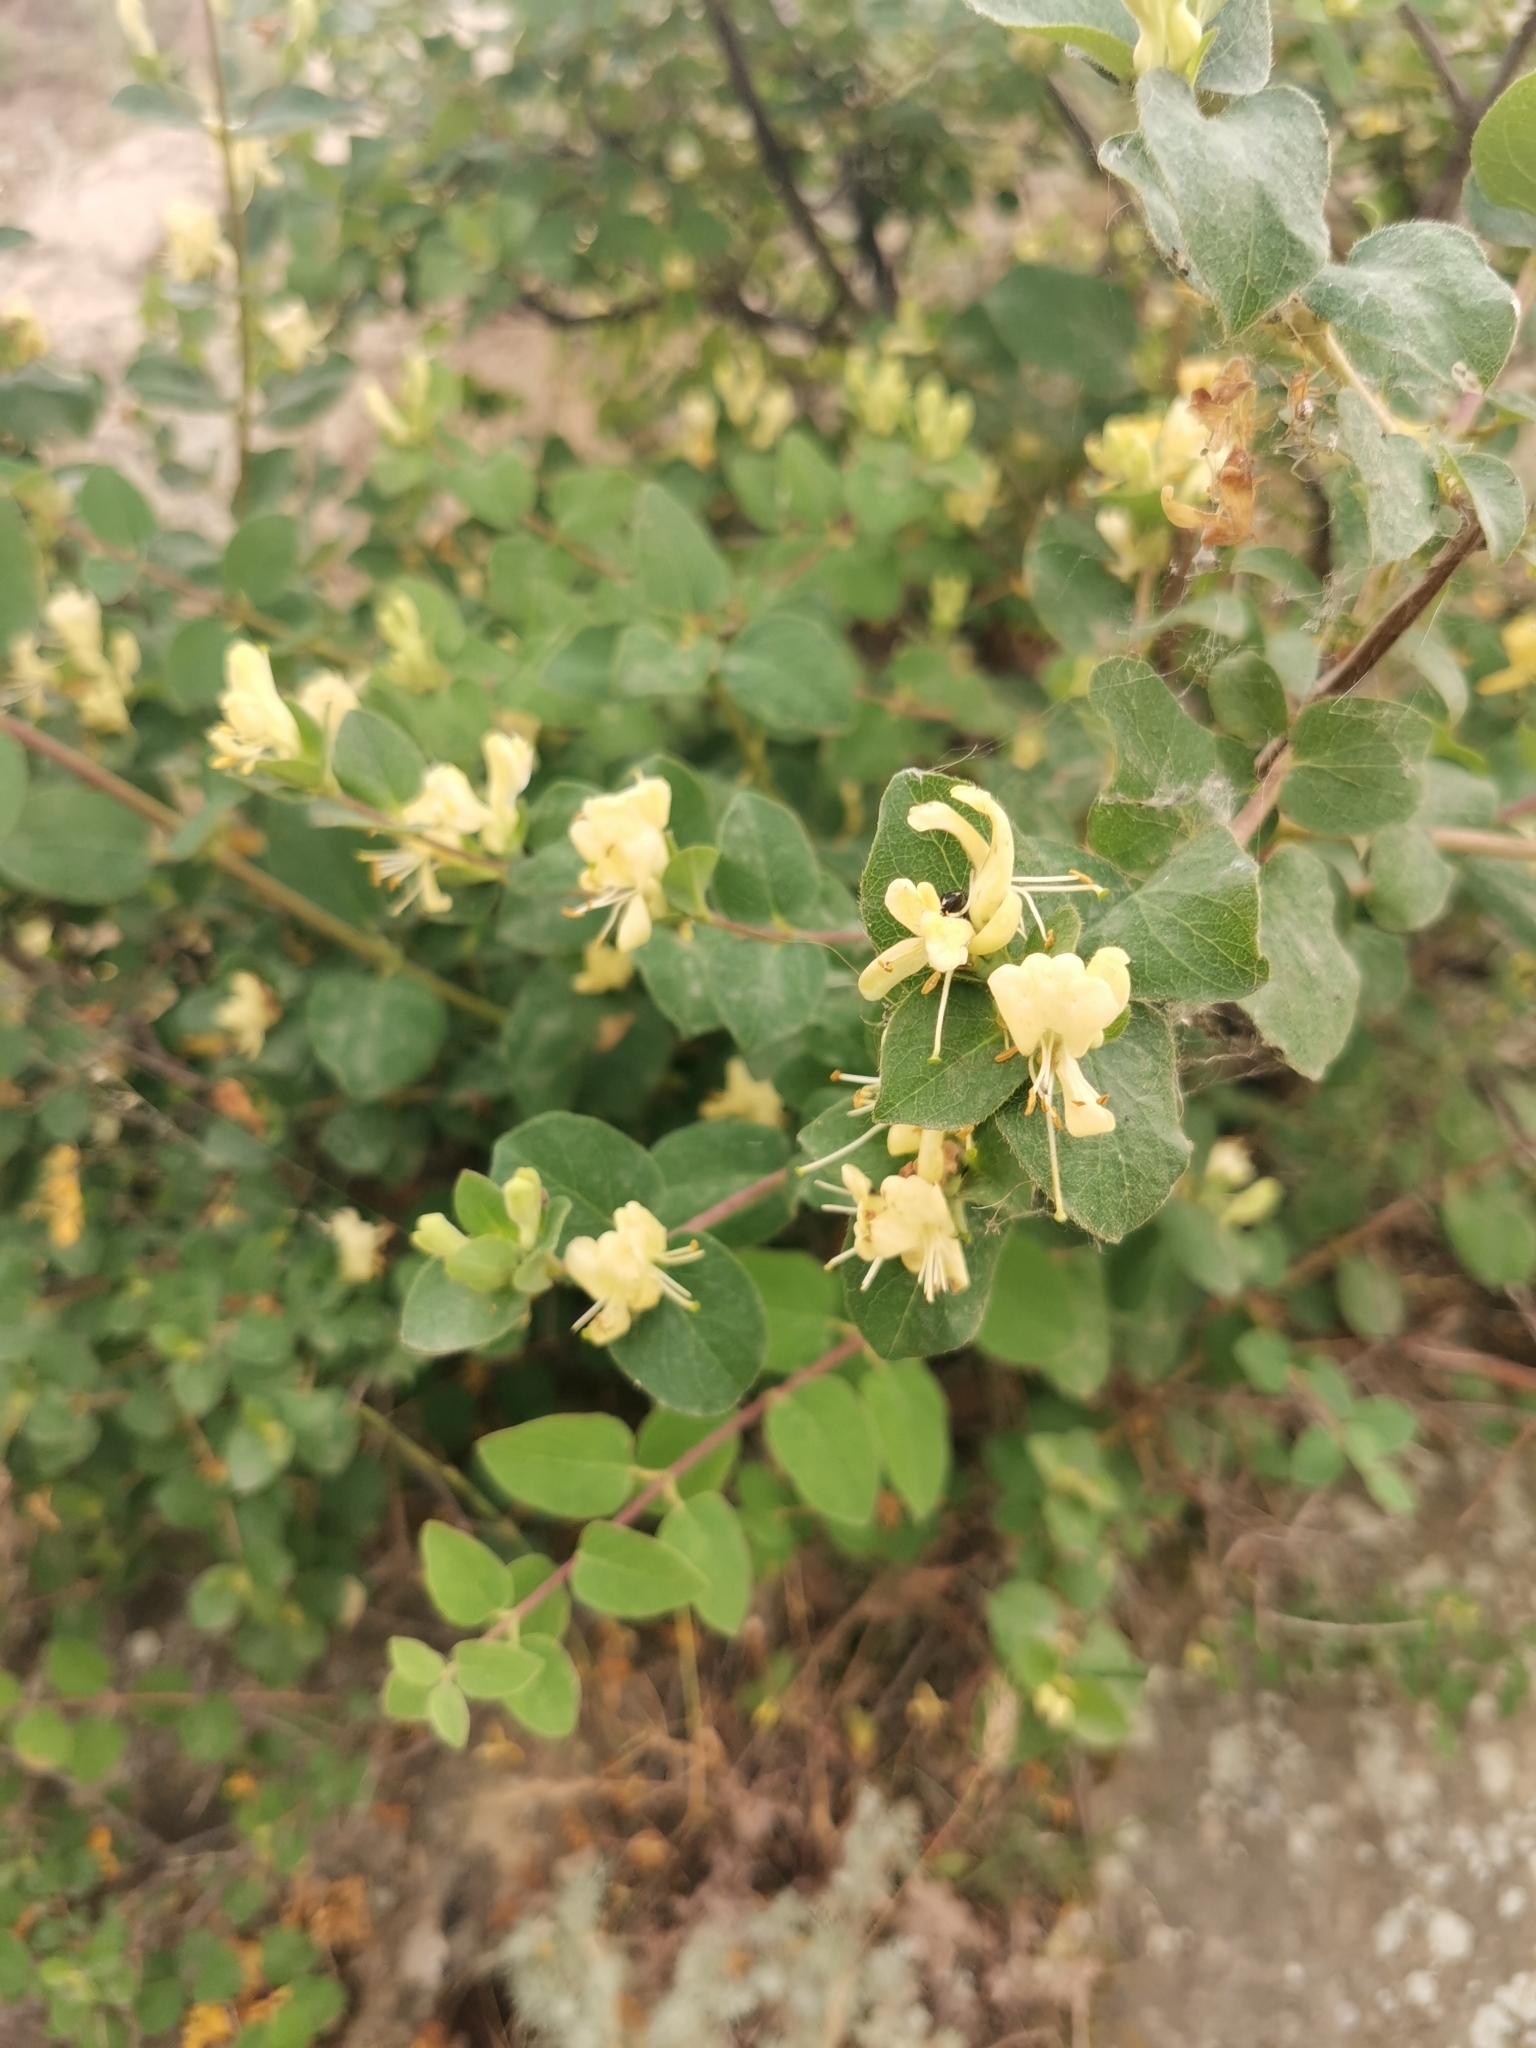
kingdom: Plantae
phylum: Tracheophyta
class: Magnoliopsida
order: Dipsacales
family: Caprifoliaceae
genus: Lonicera
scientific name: Lonicera iberica
